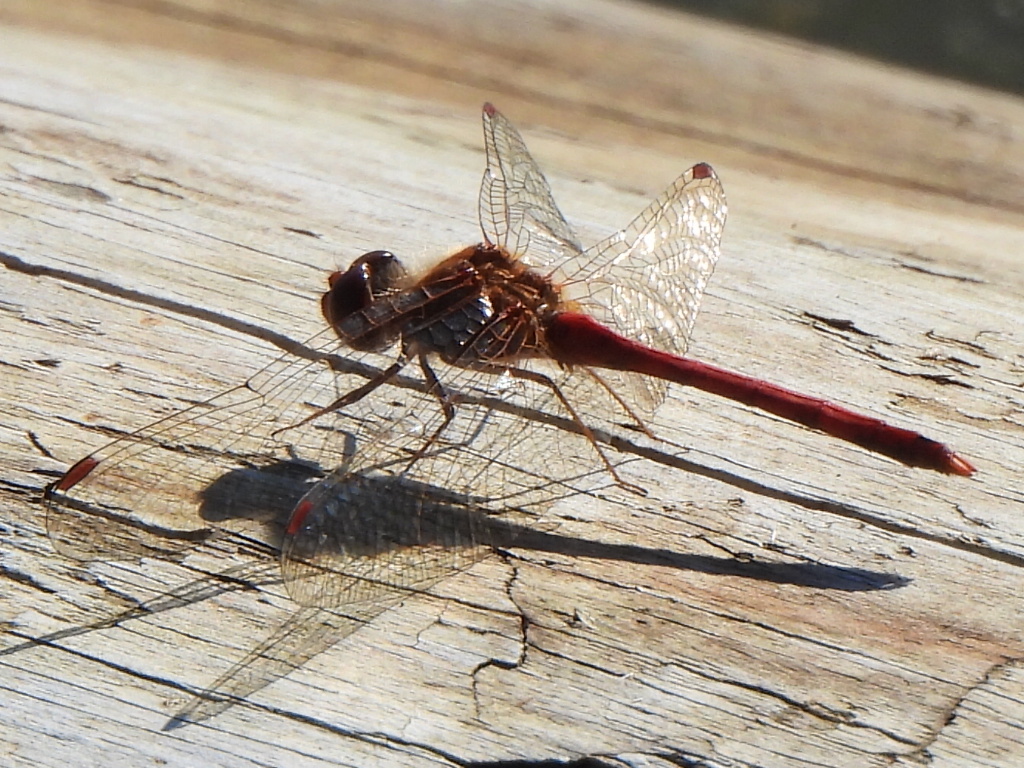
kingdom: Animalia
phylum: Arthropoda
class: Insecta
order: Odonata
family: Libellulidae
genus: Sympetrum
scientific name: Sympetrum vicinum
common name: Autumn meadowhawk
